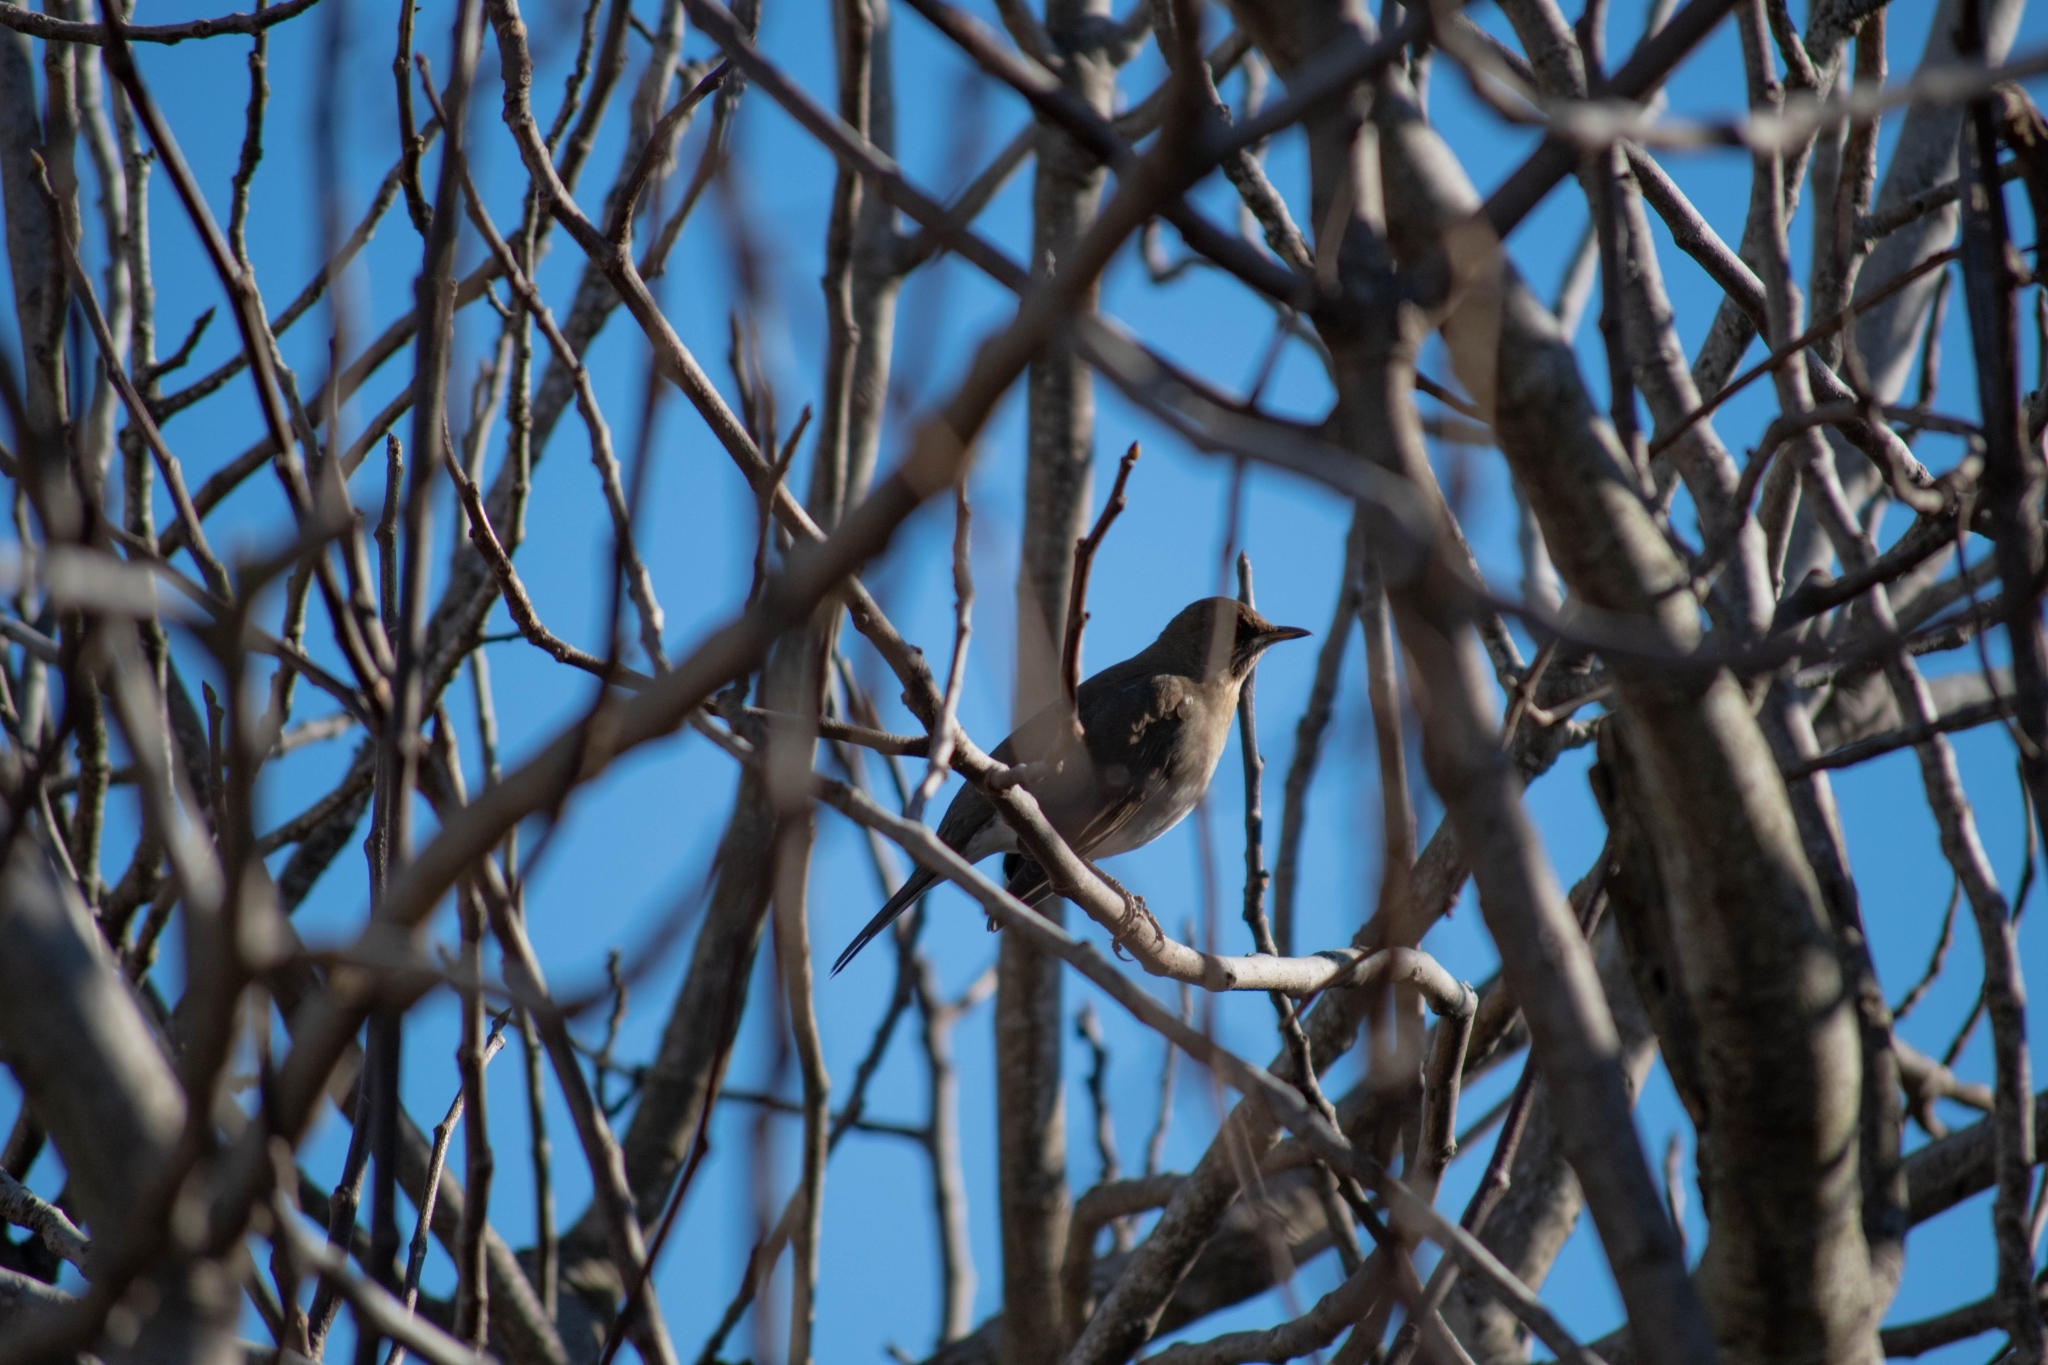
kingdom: Animalia
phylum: Chordata
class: Aves
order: Passeriformes
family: Turdidae
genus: Turdus
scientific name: Turdus amaurochalinus
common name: Creamy-bellied thrush
